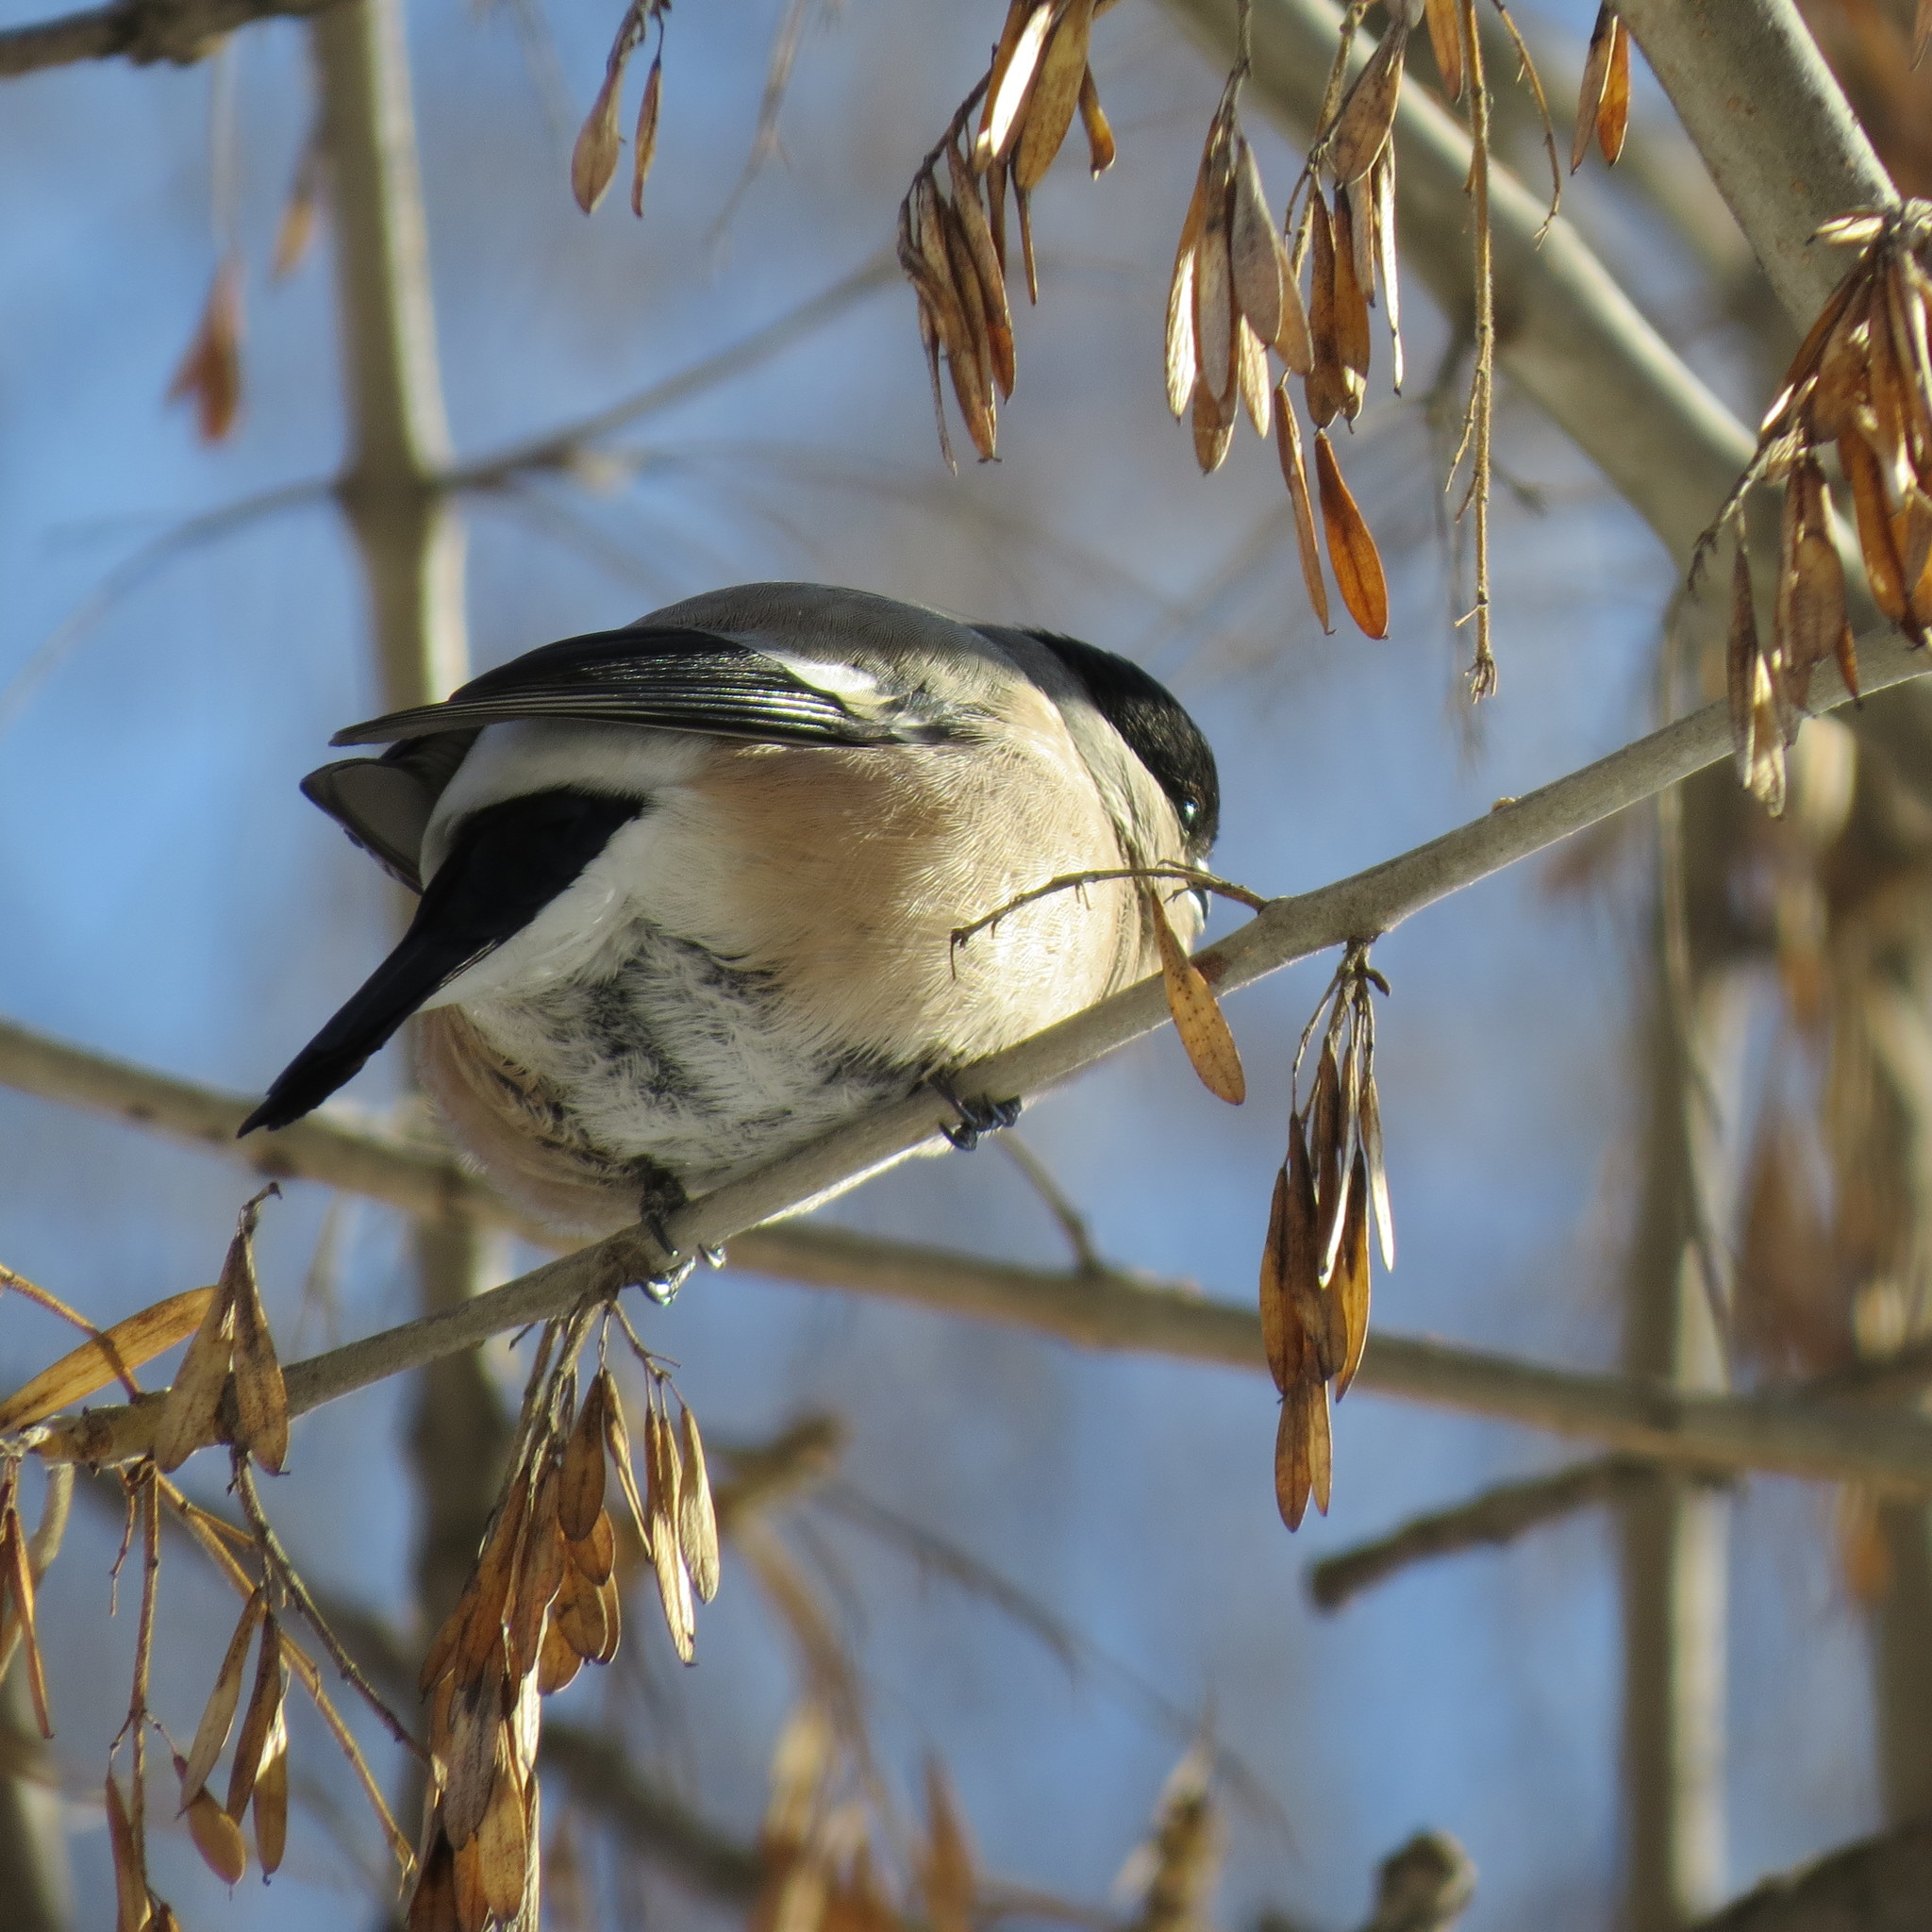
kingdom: Animalia
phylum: Chordata
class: Aves
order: Passeriformes
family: Fringillidae
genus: Pyrrhula
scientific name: Pyrrhula pyrrhula
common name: Eurasian bullfinch
